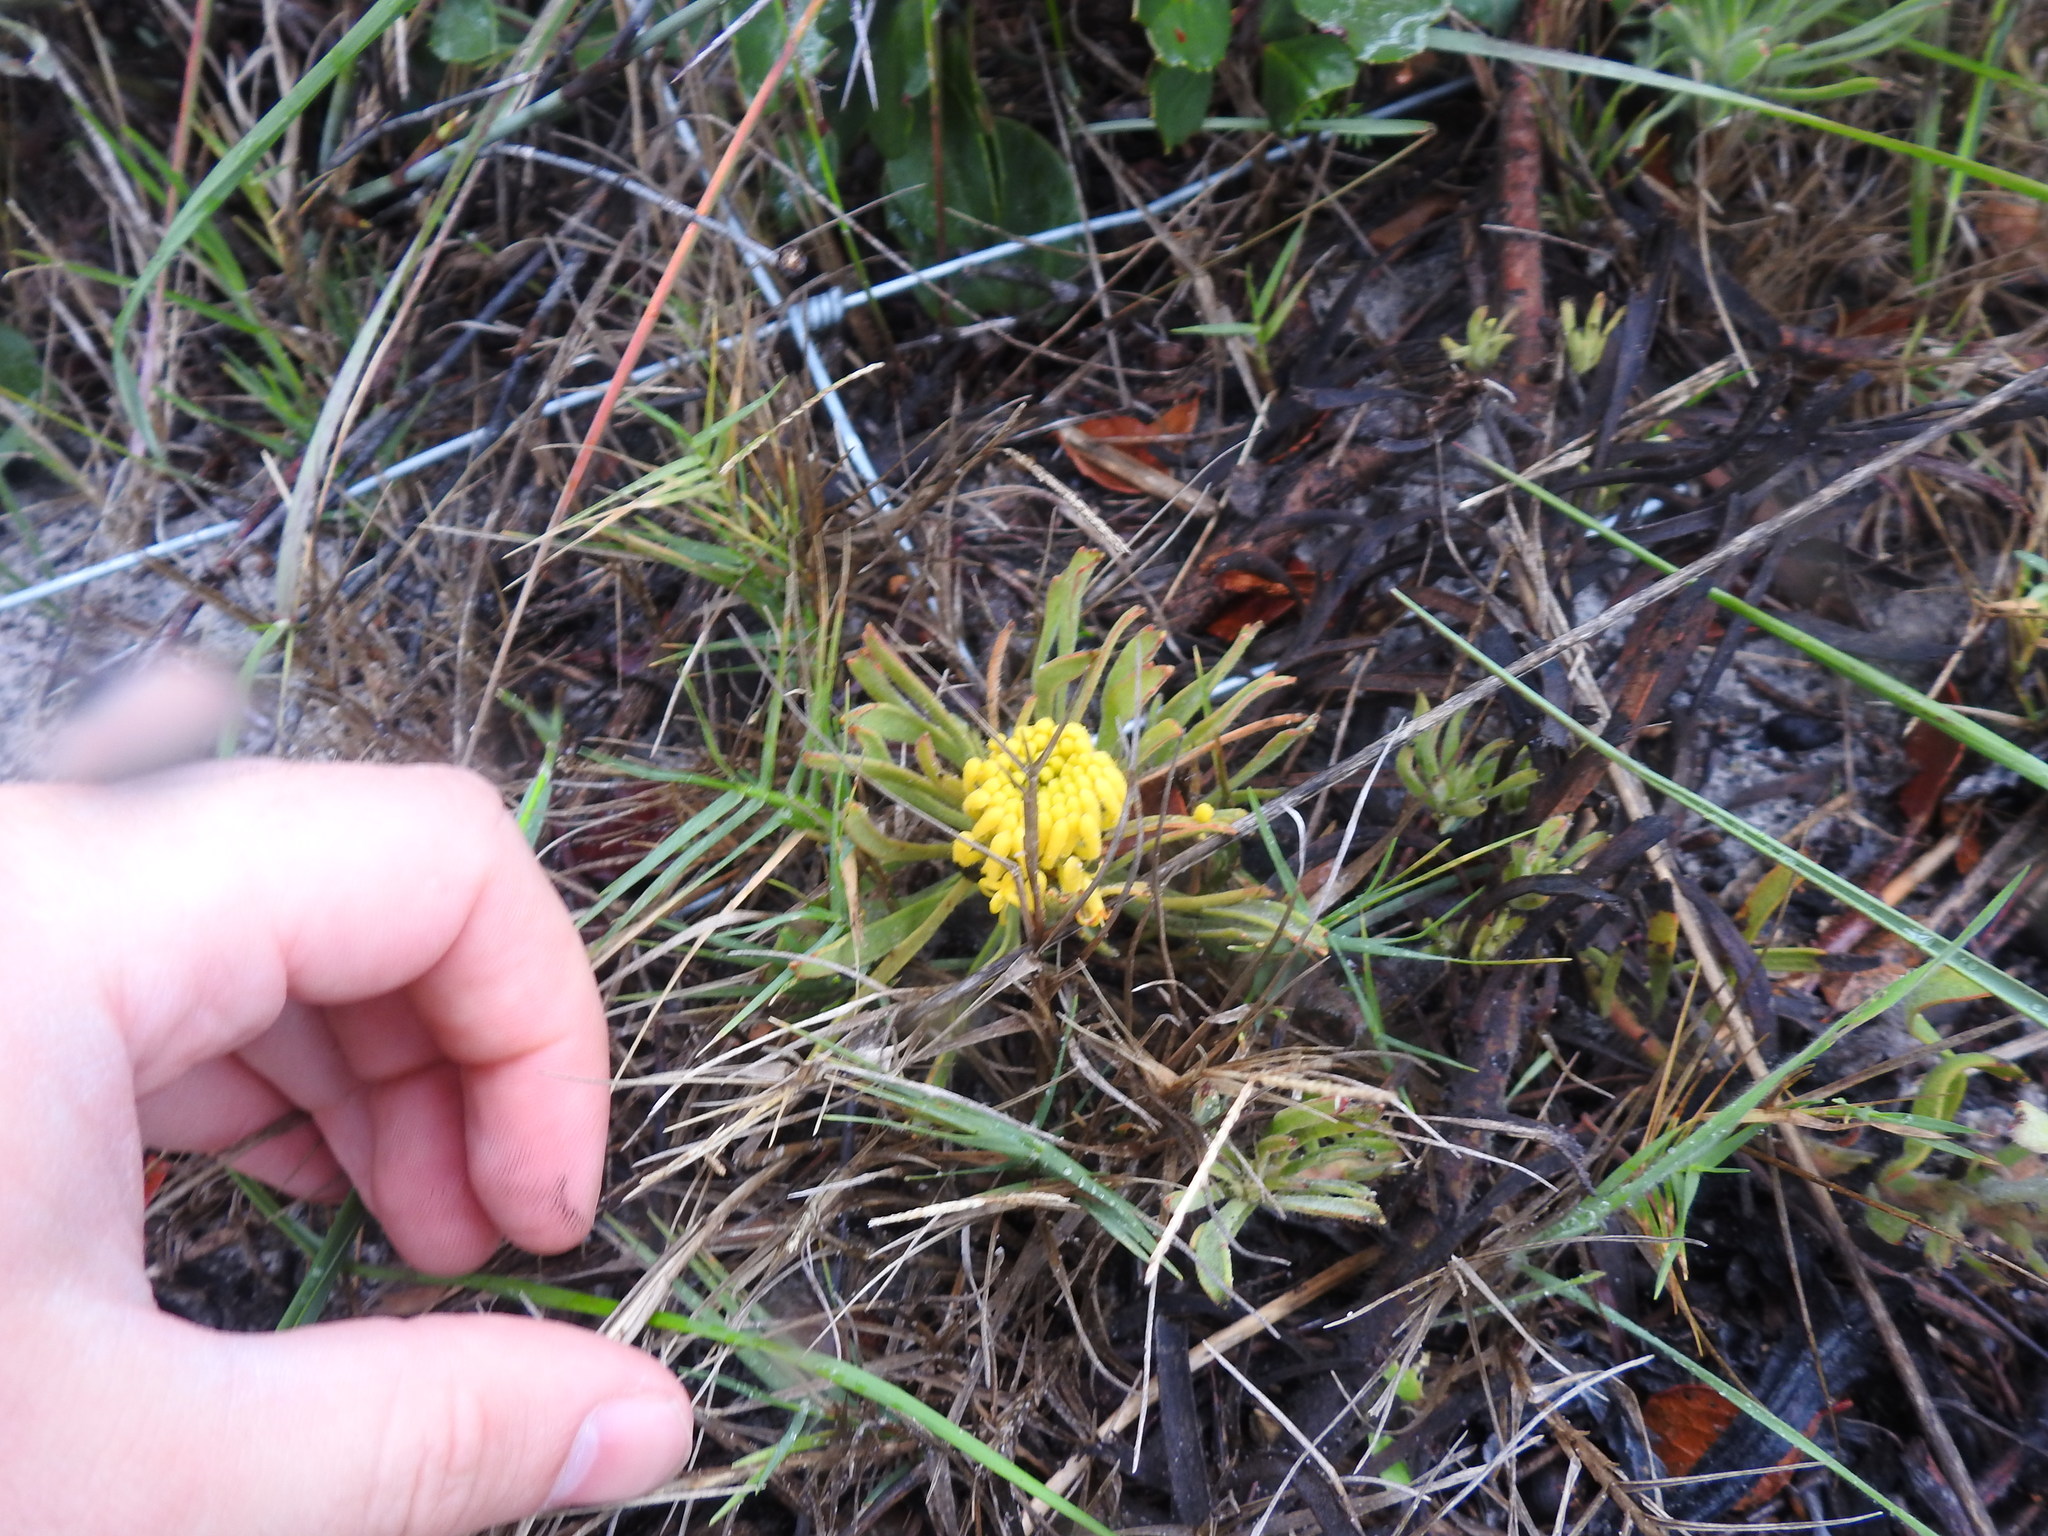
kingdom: Plantae
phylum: Tracheophyta
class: Magnoliopsida
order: Proteales
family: Proteaceae
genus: Leucospermum
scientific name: Leucospermum hypophyllocarpodendron
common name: Snakestem pincushion
